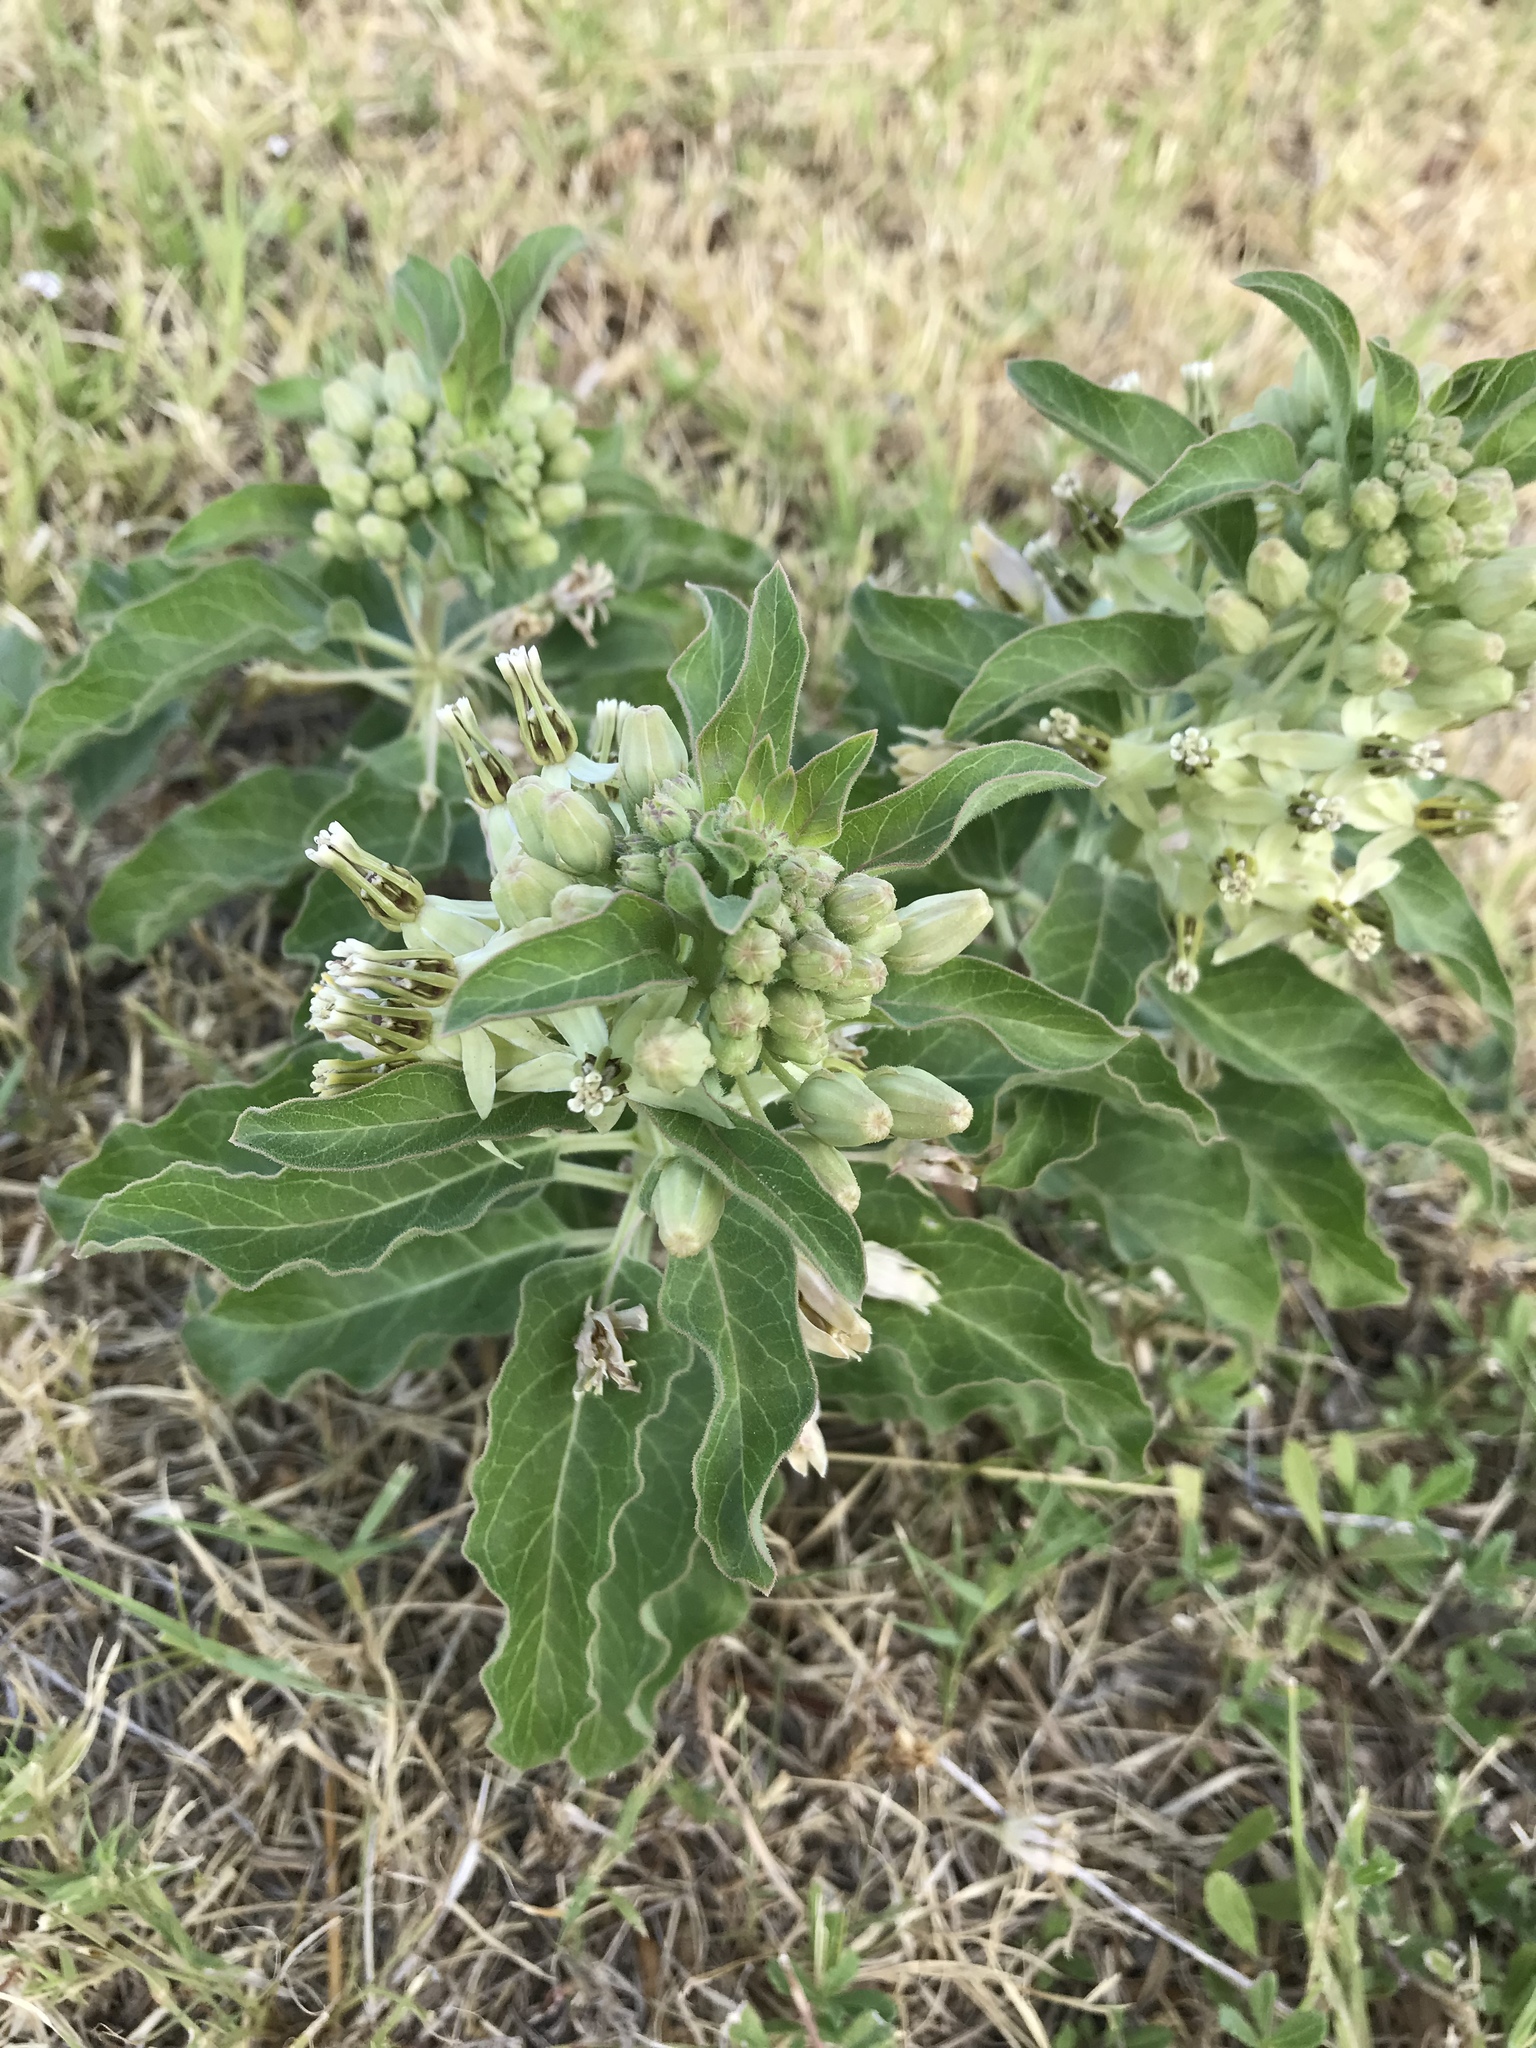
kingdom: Plantae
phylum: Tracheophyta
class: Magnoliopsida
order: Gentianales
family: Apocynaceae
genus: Asclepias
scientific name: Asclepias oenotheroides
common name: Zizotes milkweed
